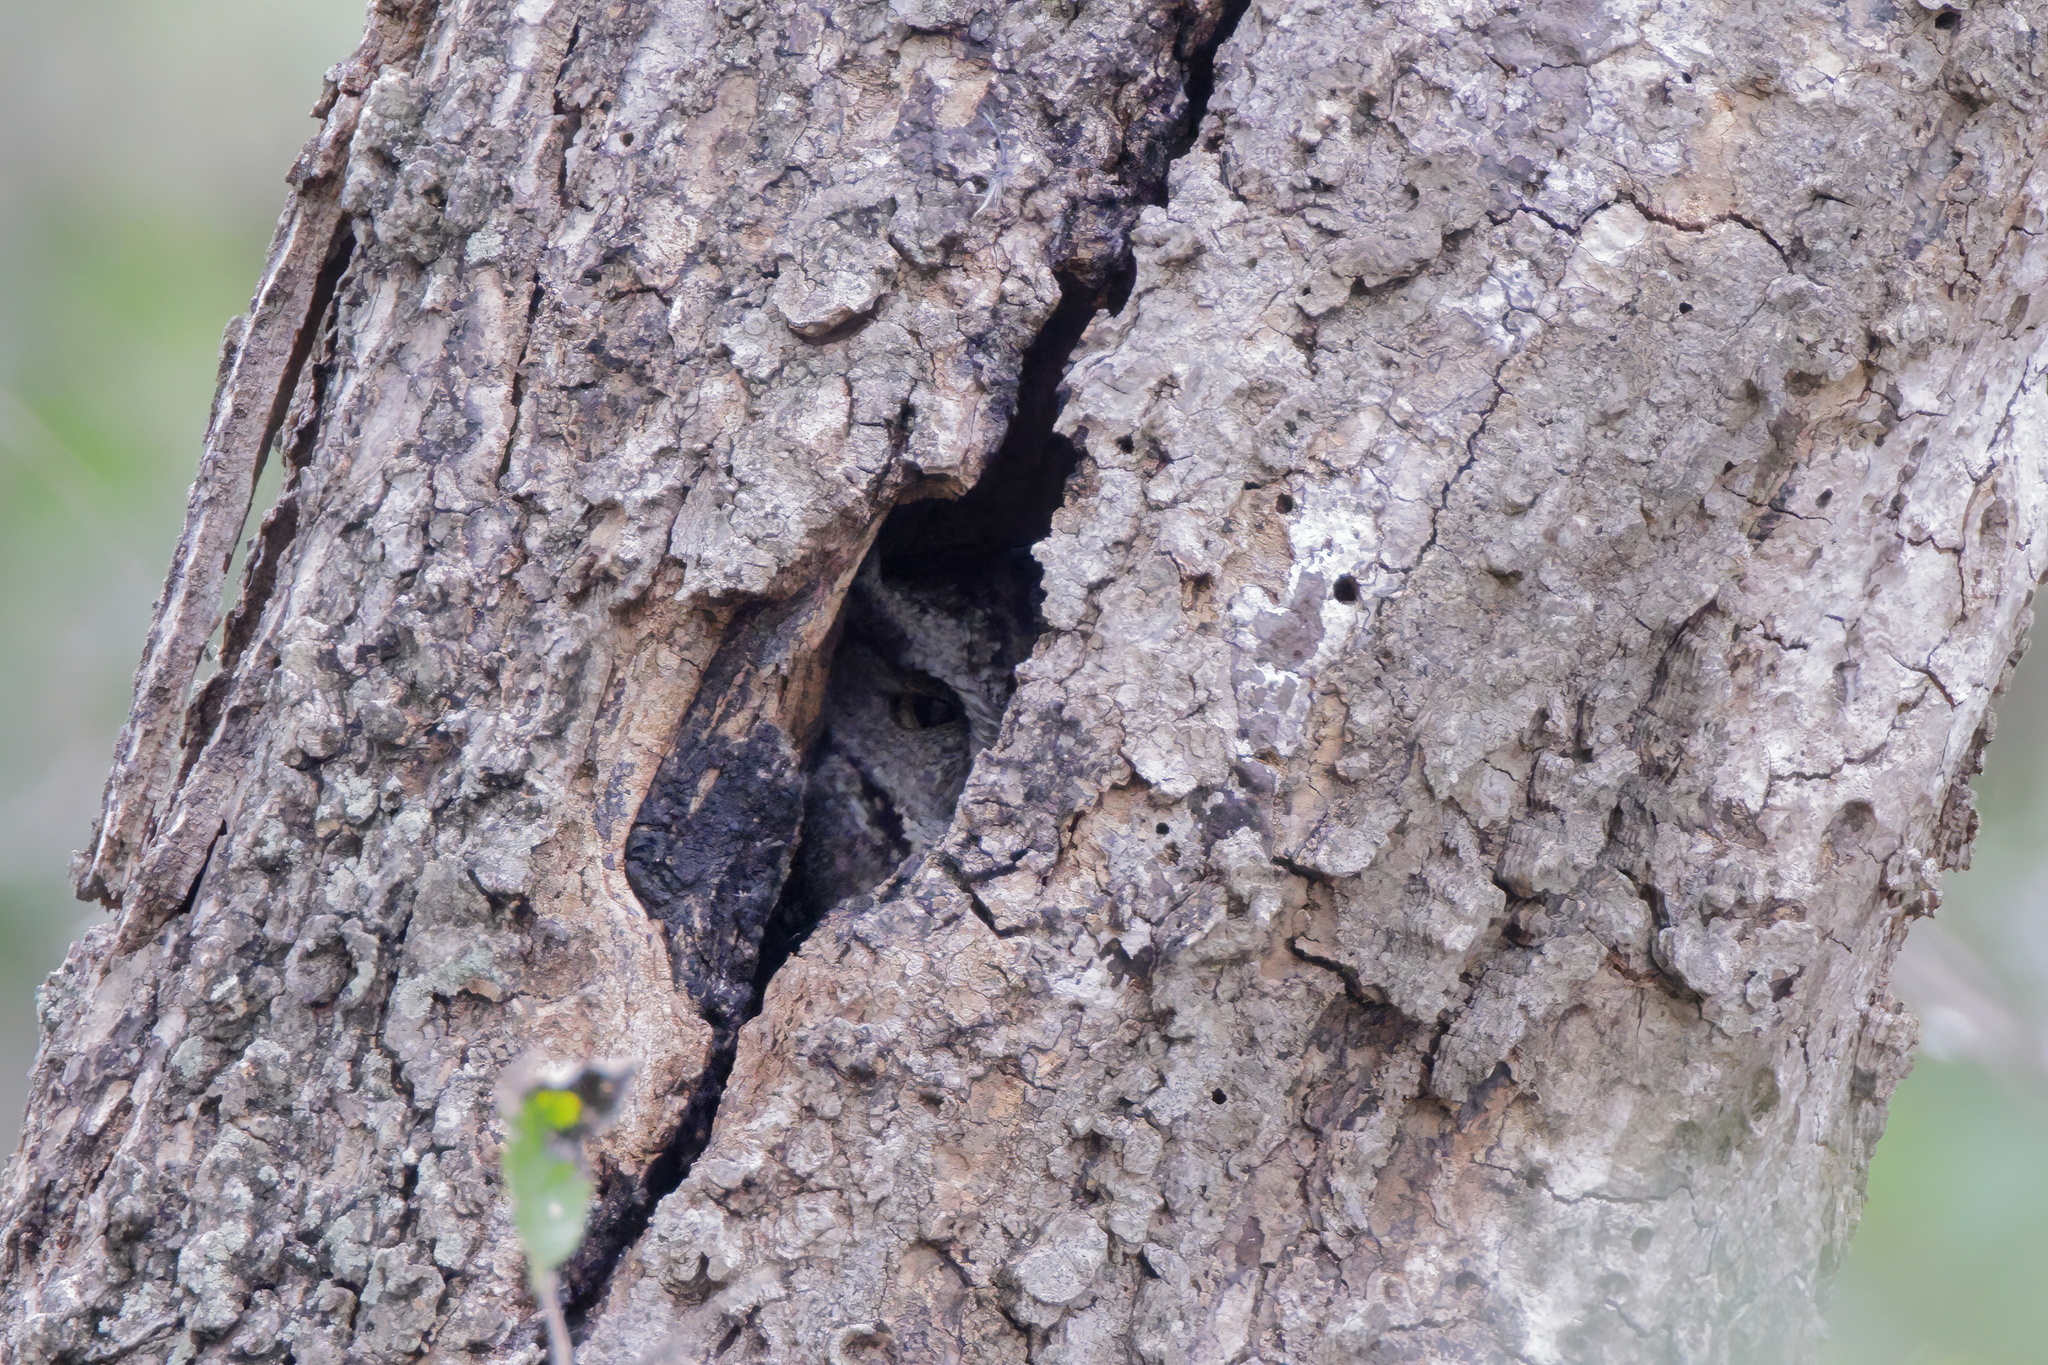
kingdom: Animalia
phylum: Chordata
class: Aves
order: Strigiformes
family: Strigidae
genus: Megascops
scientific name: Megascops asio
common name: Eastern screech-owl
